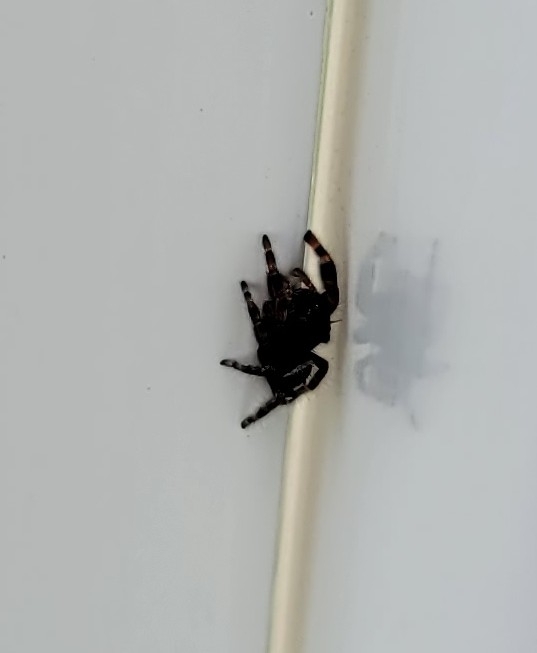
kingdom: Animalia
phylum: Arthropoda
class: Arachnida
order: Araneae
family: Salticidae
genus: Phidippus
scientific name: Phidippus audax
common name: Bold jumper
